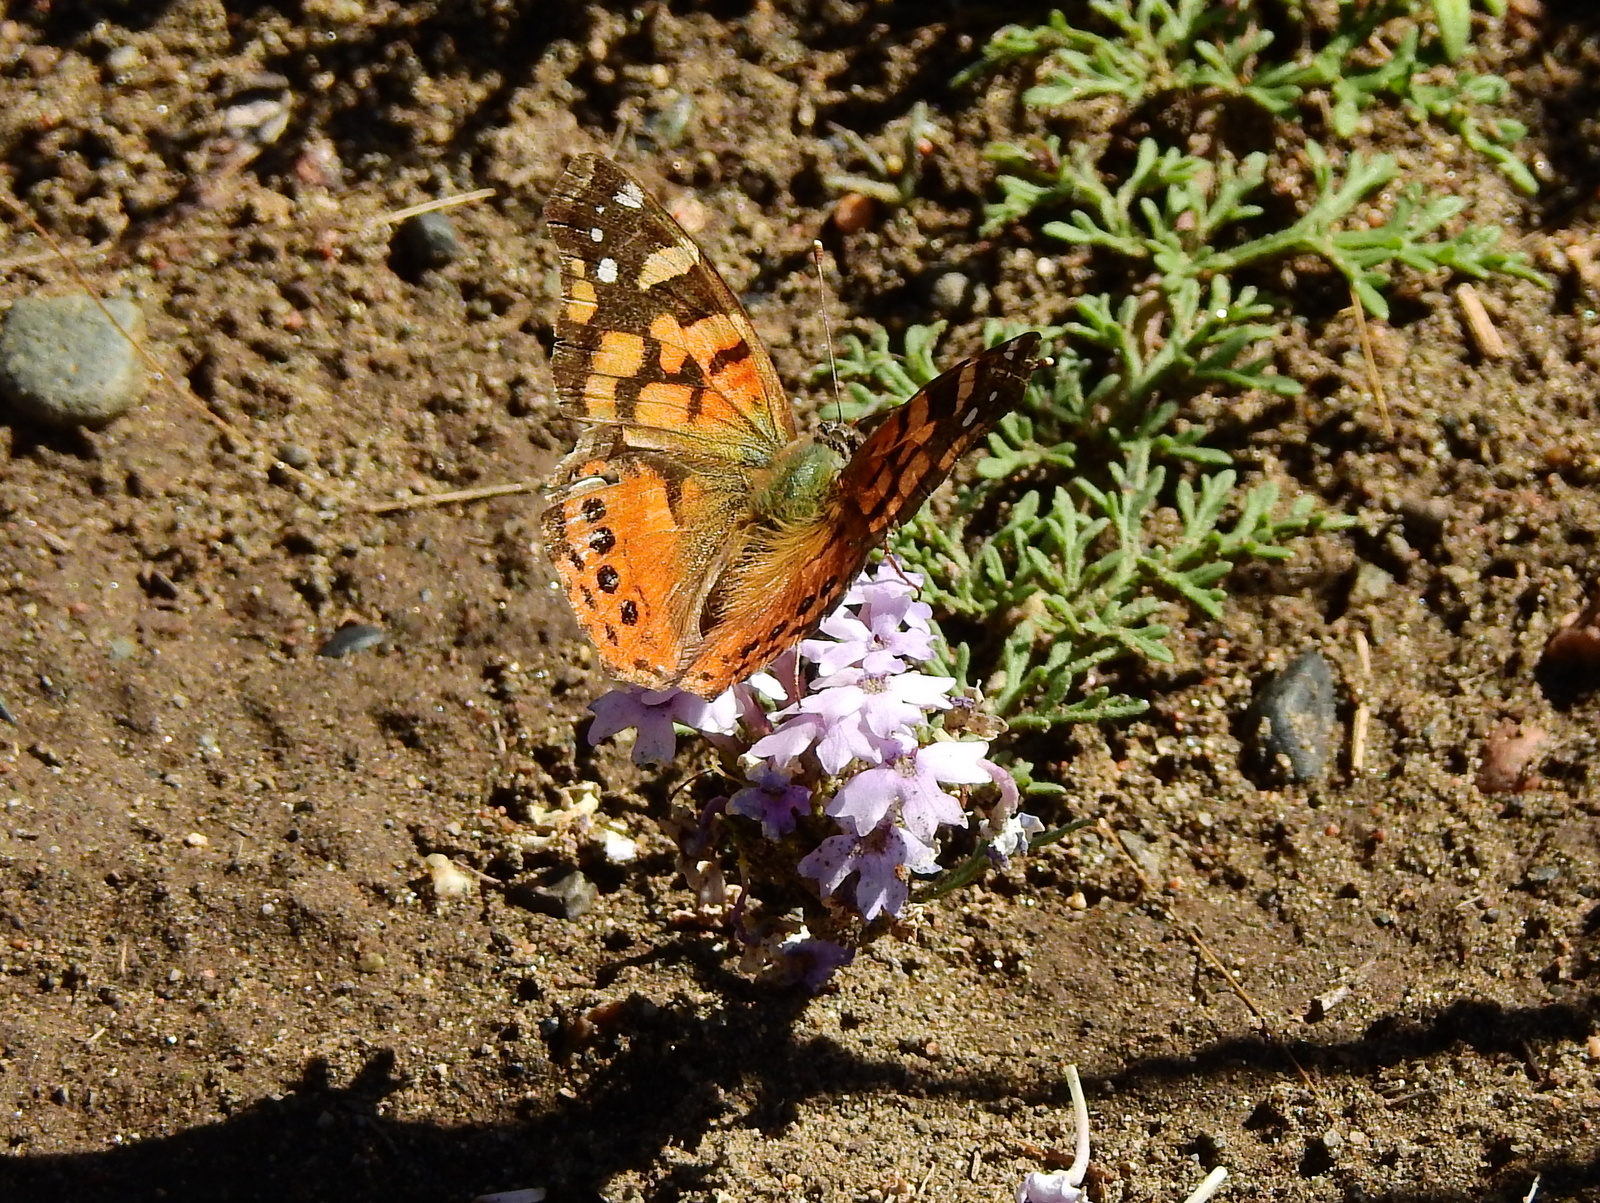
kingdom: Animalia
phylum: Arthropoda
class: Insecta
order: Lepidoptera
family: Nymphalidae
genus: Vanessa
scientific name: Vanessa carye
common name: Subtropical lady
